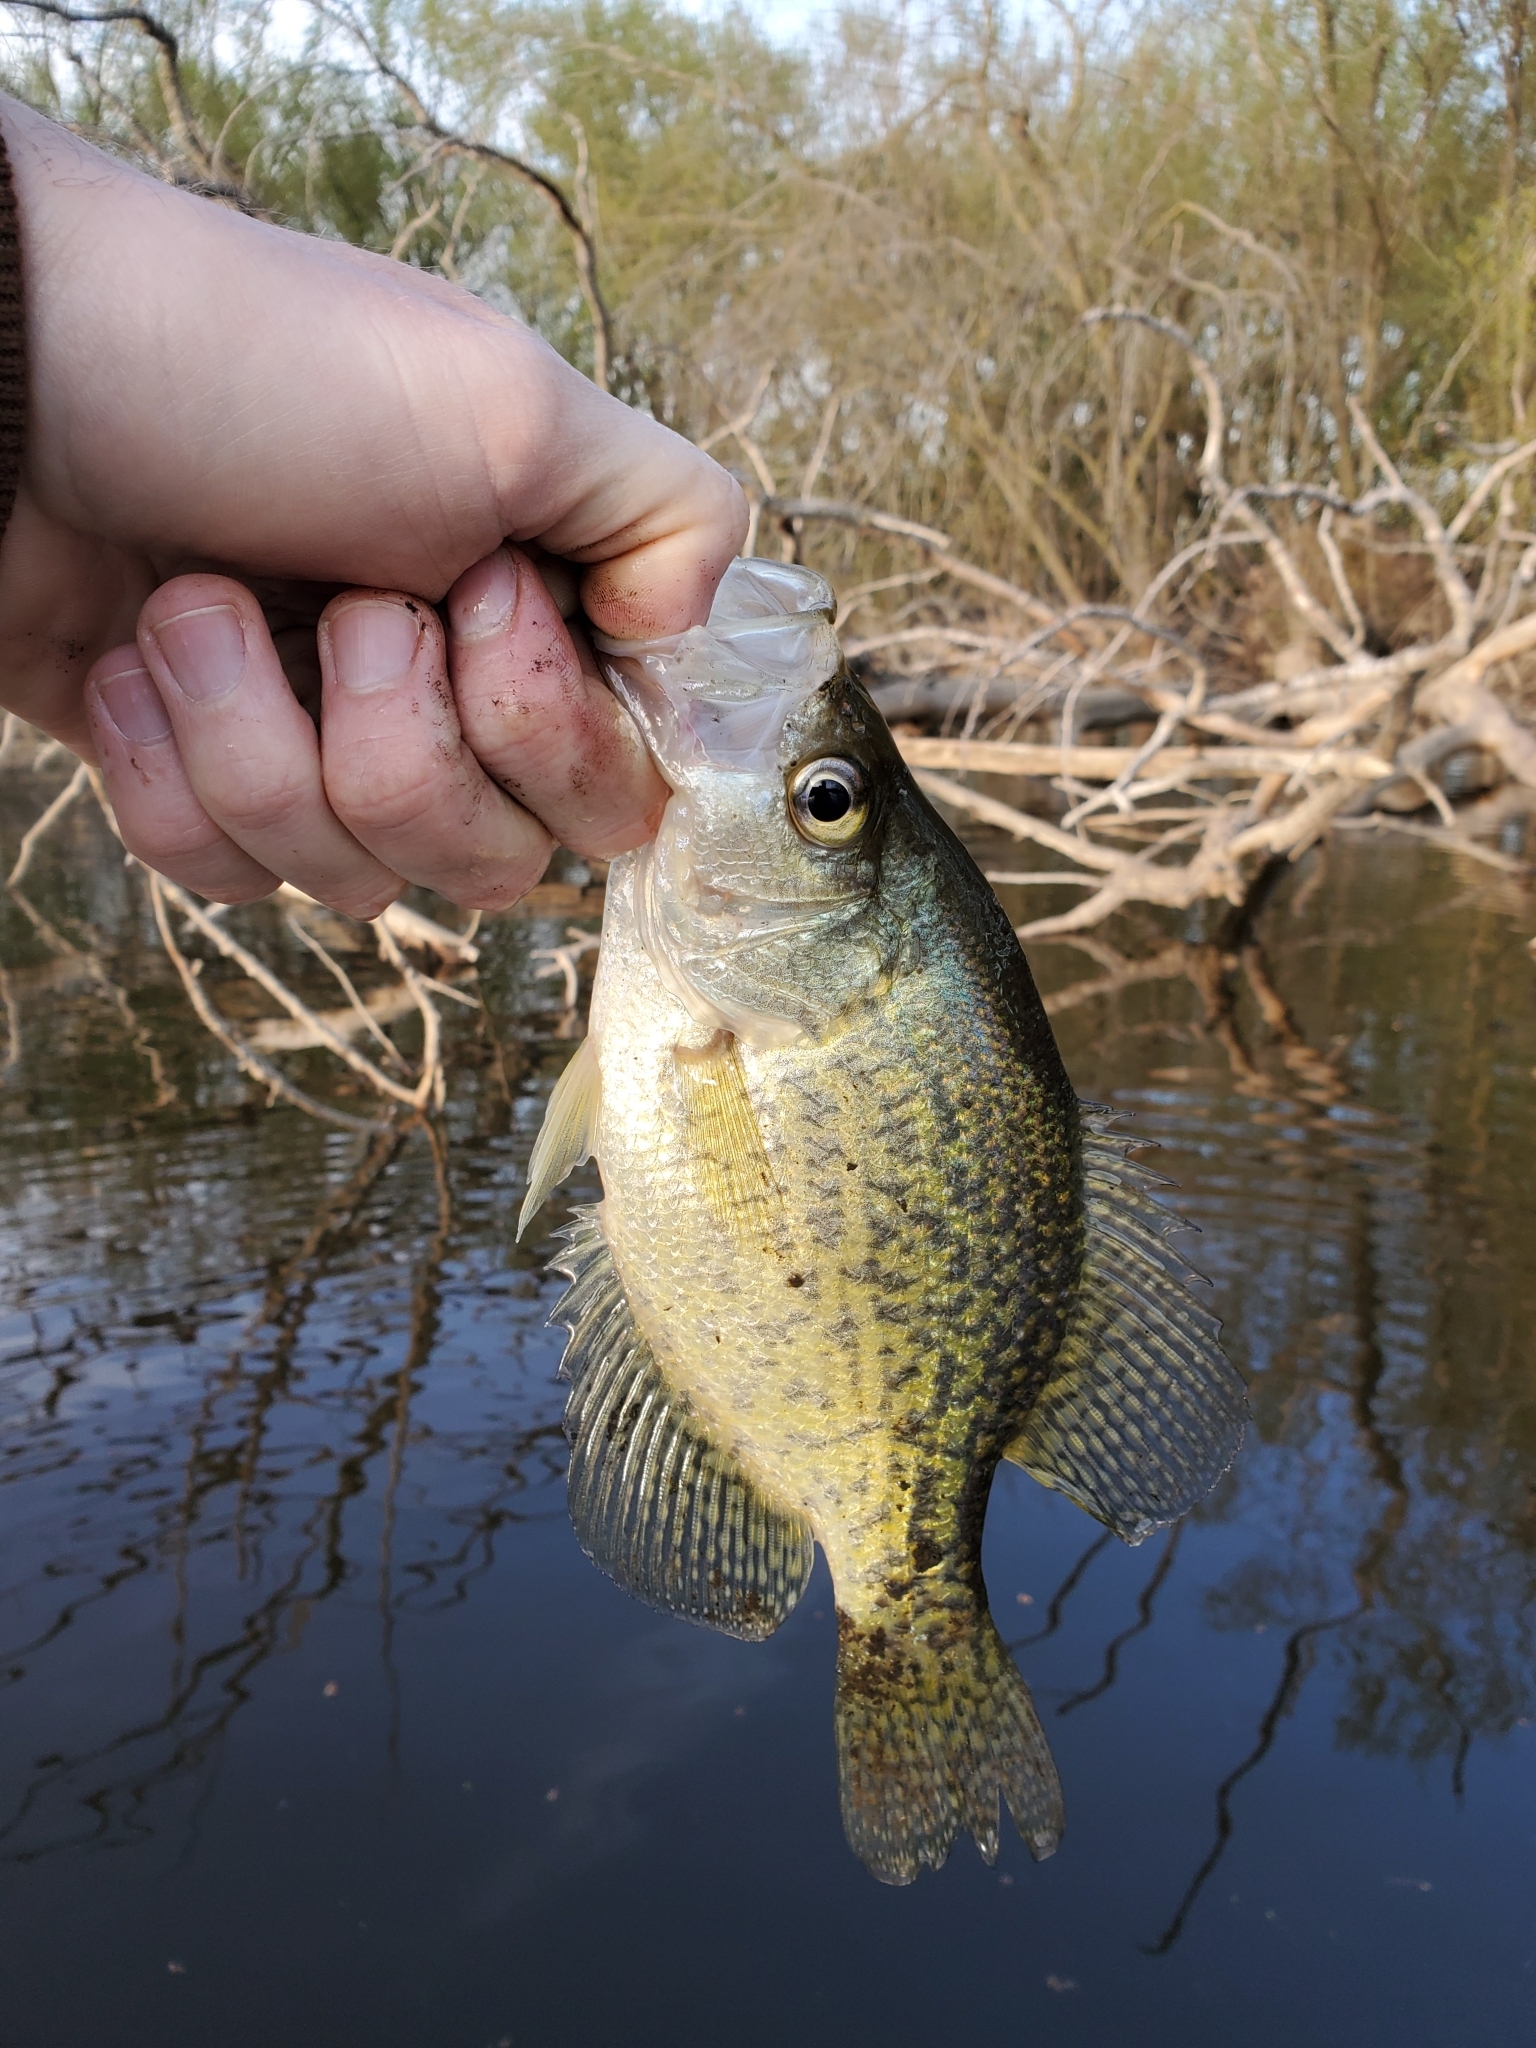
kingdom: Animalia
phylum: Chordata
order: Perciformes
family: Centrarchidae
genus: Pomoxis
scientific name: Pomoxis nigromaculatus
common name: Black crappie
